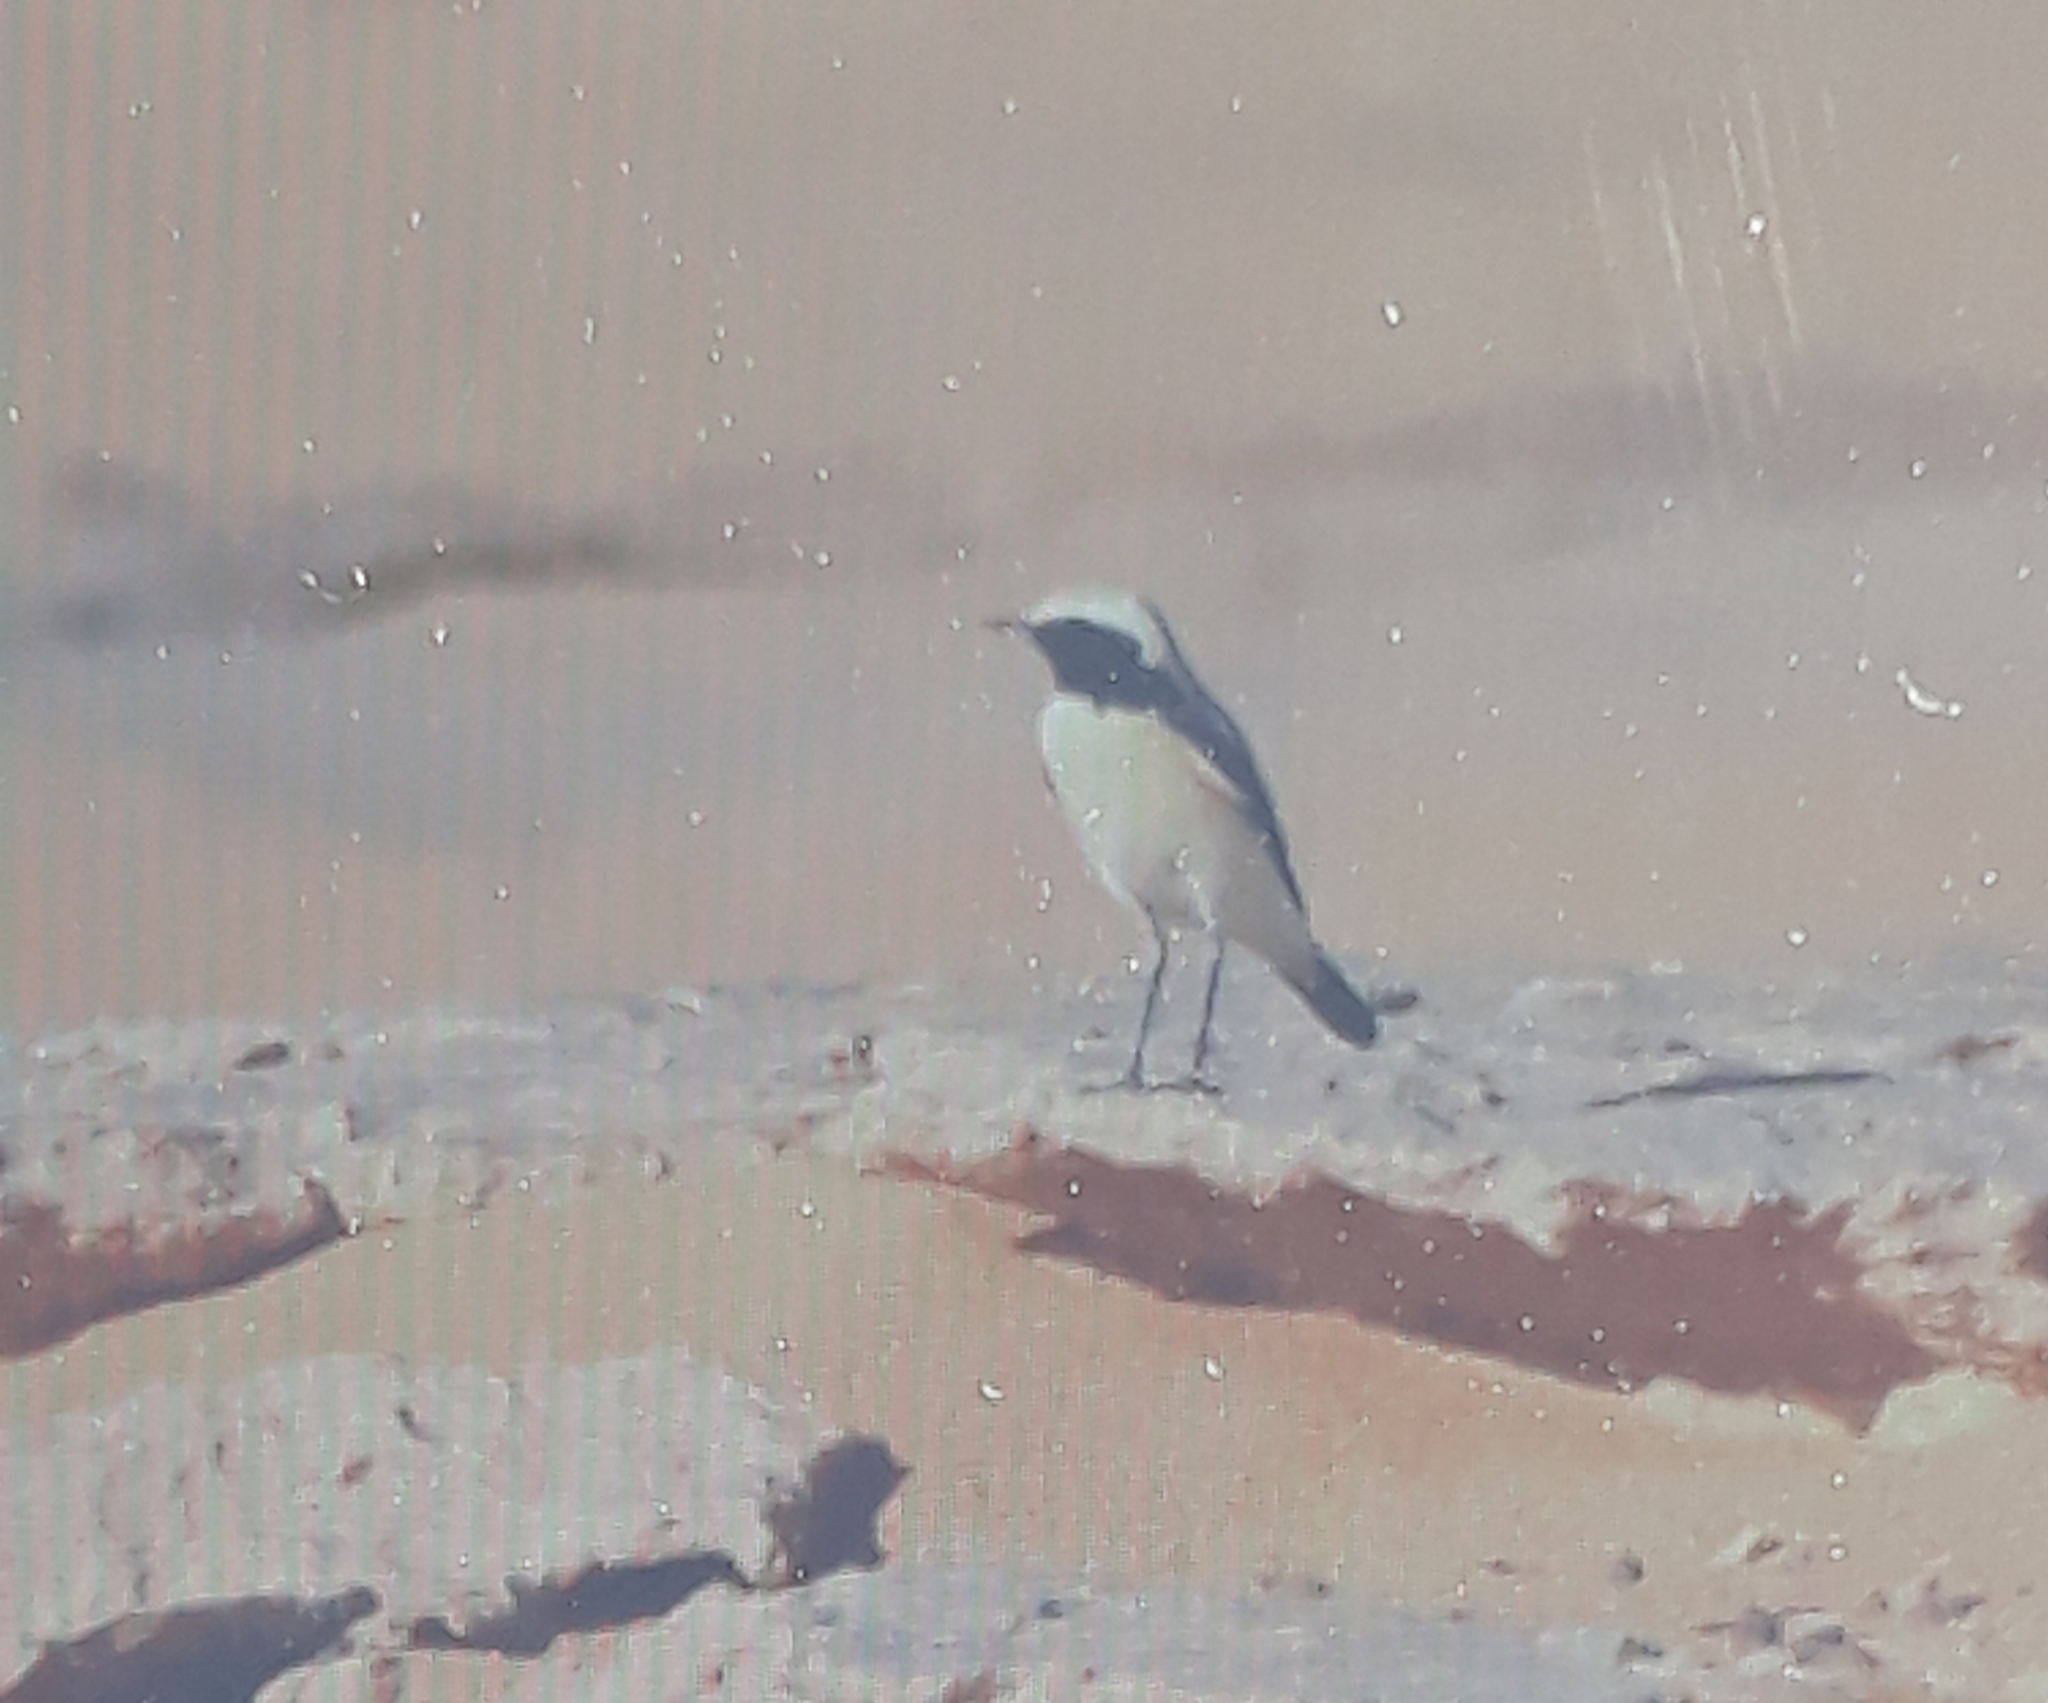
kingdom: Animalia
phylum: Chordata
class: Aves
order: Passeriformes
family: Muscicapidae
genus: Oenanthe
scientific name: Oenanthe deserti
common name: Desert wheatear
